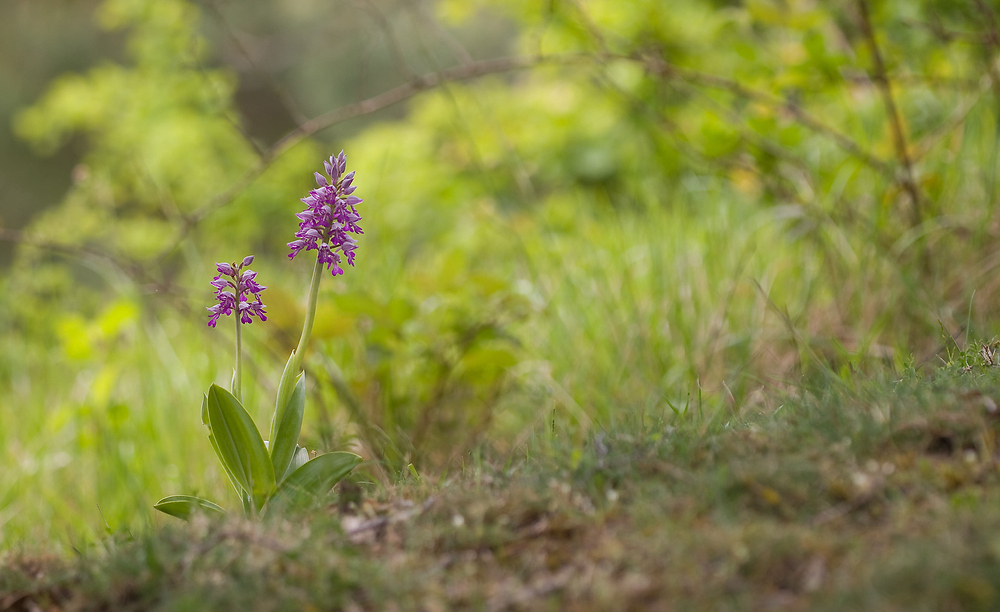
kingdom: Plantae
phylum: Tracheophyta
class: Liliopsida
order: Asparagales
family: Orchidaceae
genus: Orchis
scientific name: Orchis militaris
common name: Military orchid
